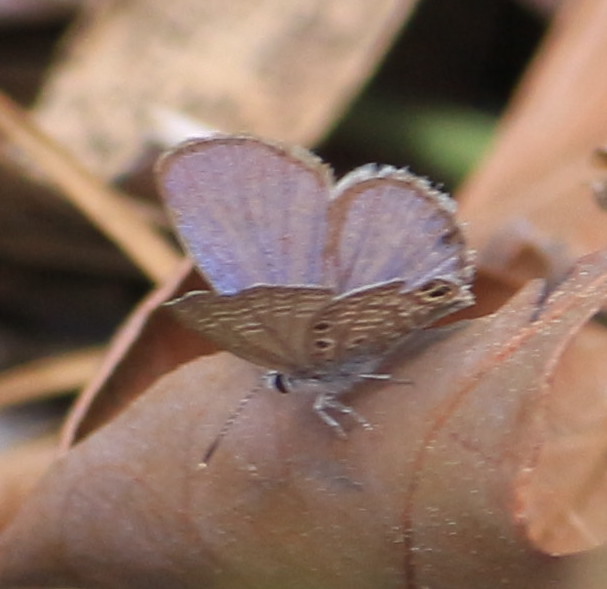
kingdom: Animalia
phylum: Arthropoda
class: Insecta
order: Lepidoptera
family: Lycaenidae
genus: Hemiargus
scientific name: Hemiargus ceraunus
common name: Ceraunus blue
